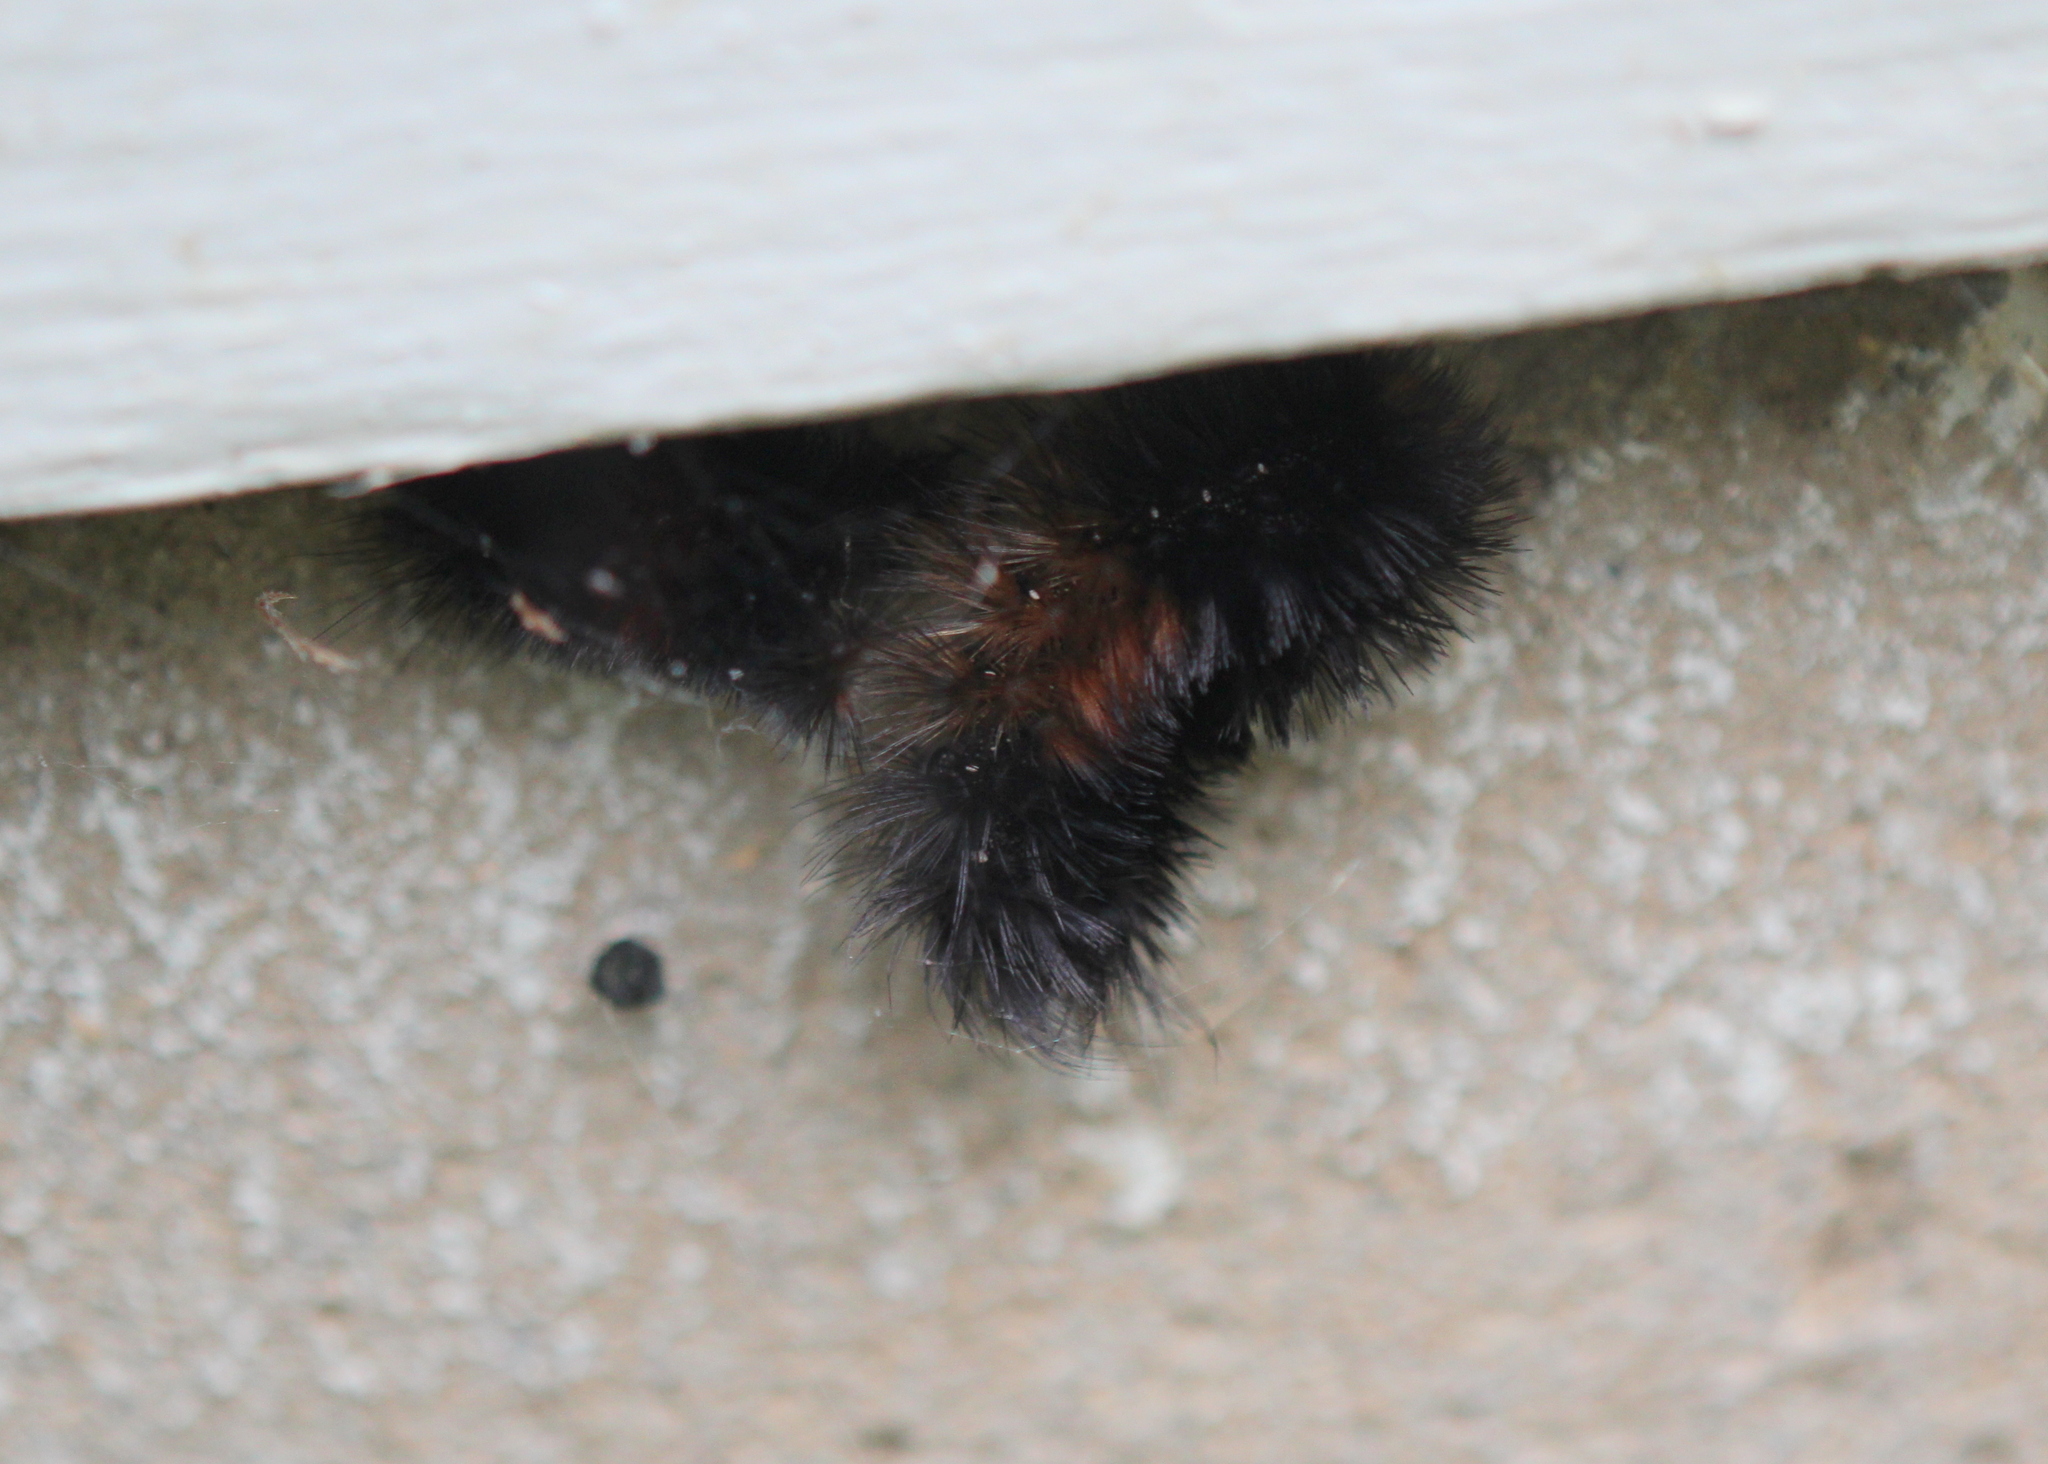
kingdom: Animalia
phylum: Arthropoda
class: Insecta
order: Lepidoptera
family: Erebidae
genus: Pyrrharctia
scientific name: Pyrrharctia isabella
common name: Isabella tiger moth
